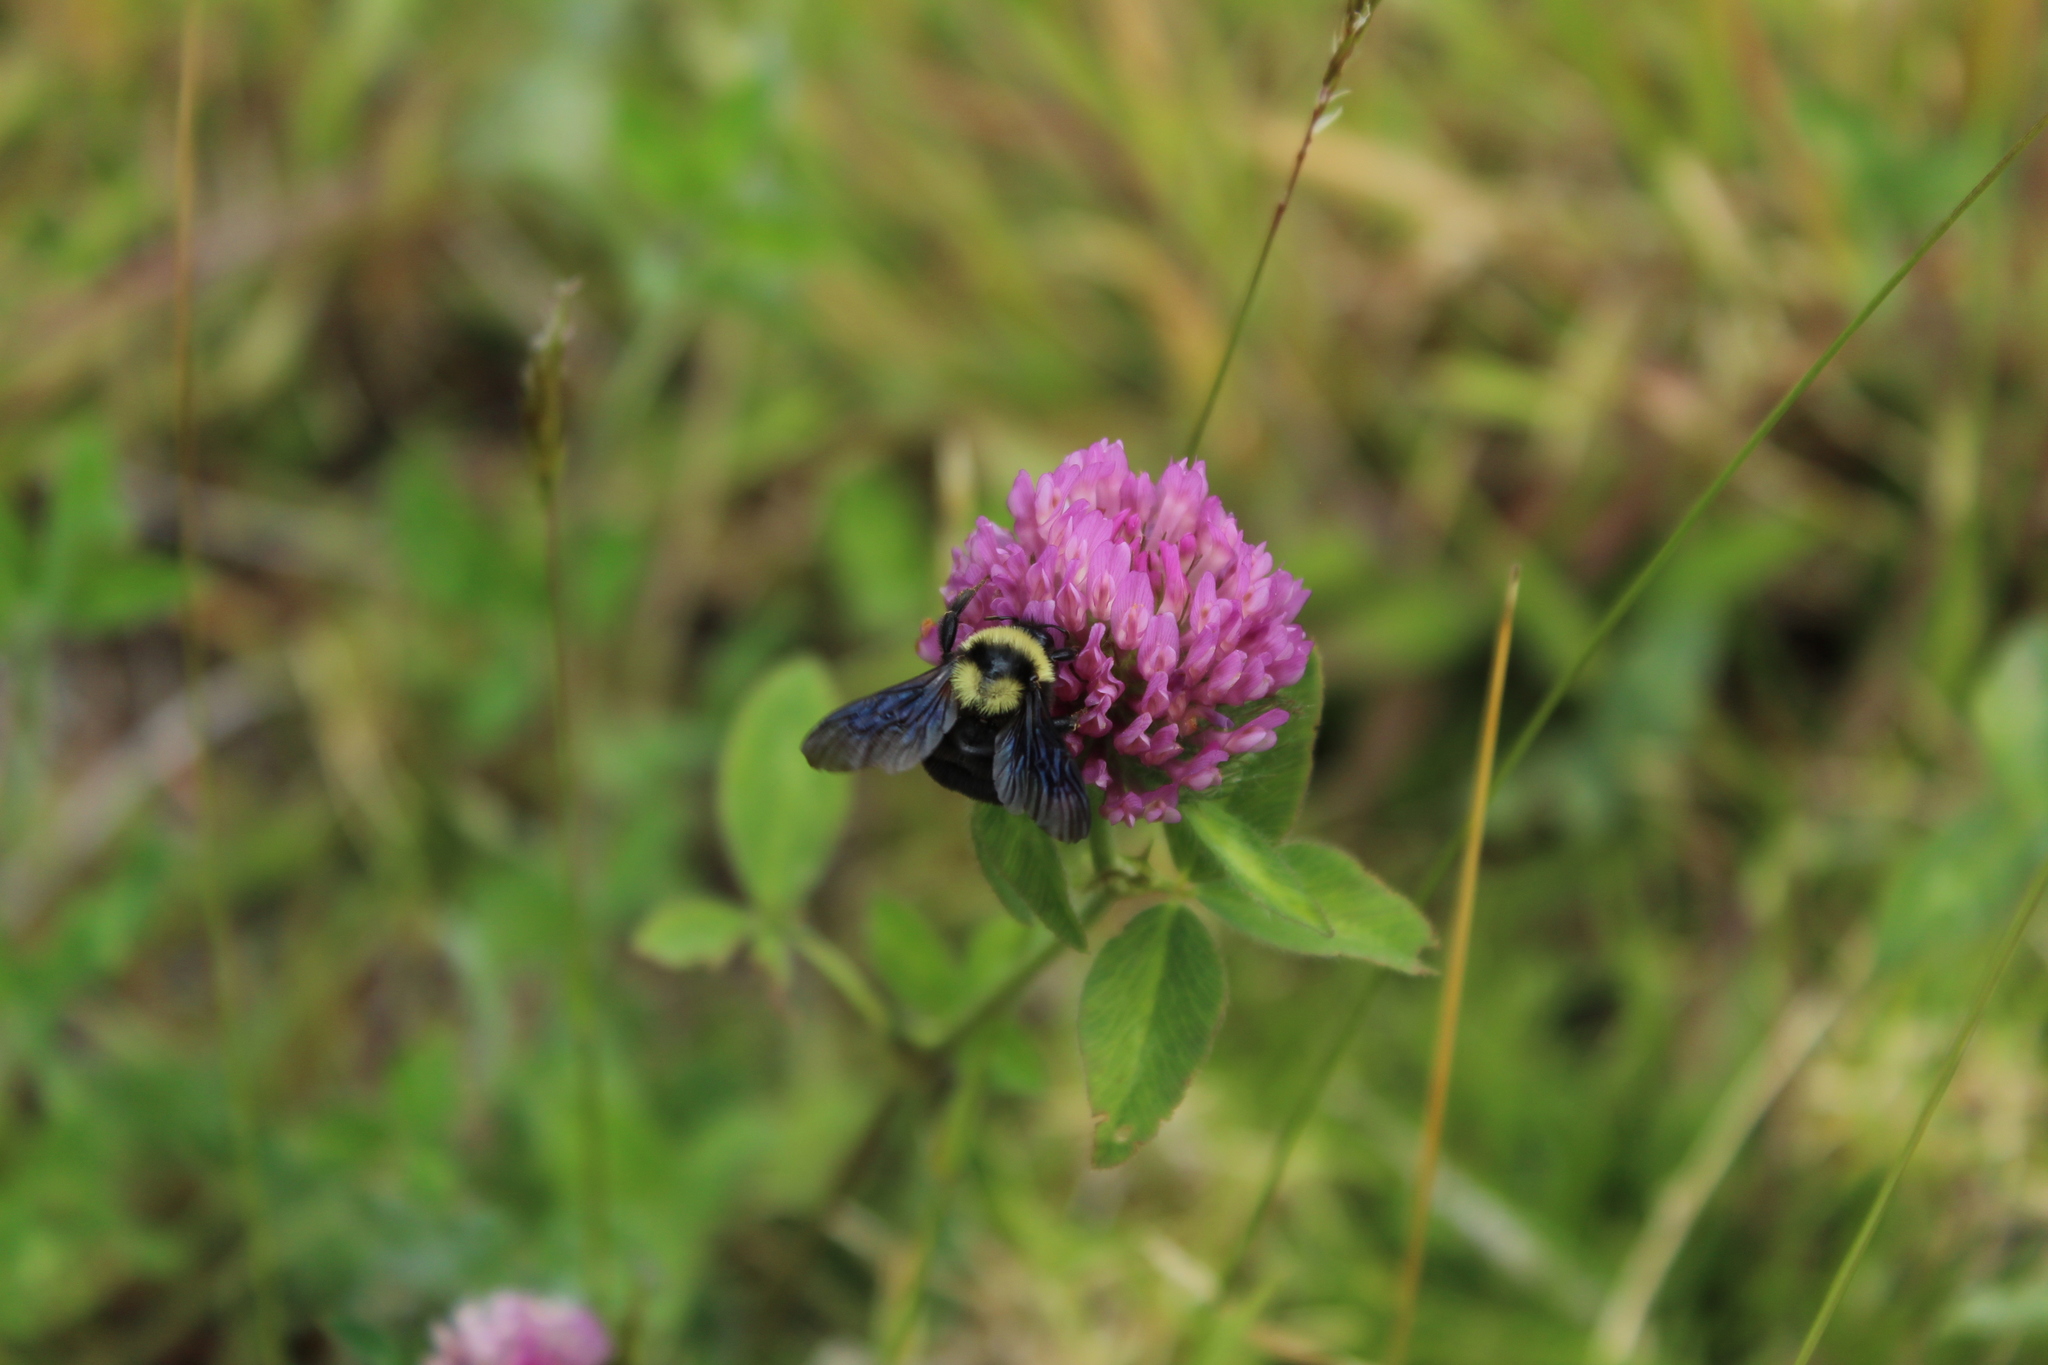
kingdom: Animalia
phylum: Arthropoda
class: Insecta
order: Hymenoptera
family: Apidae
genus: Bombus
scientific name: Bombus pauloensis
